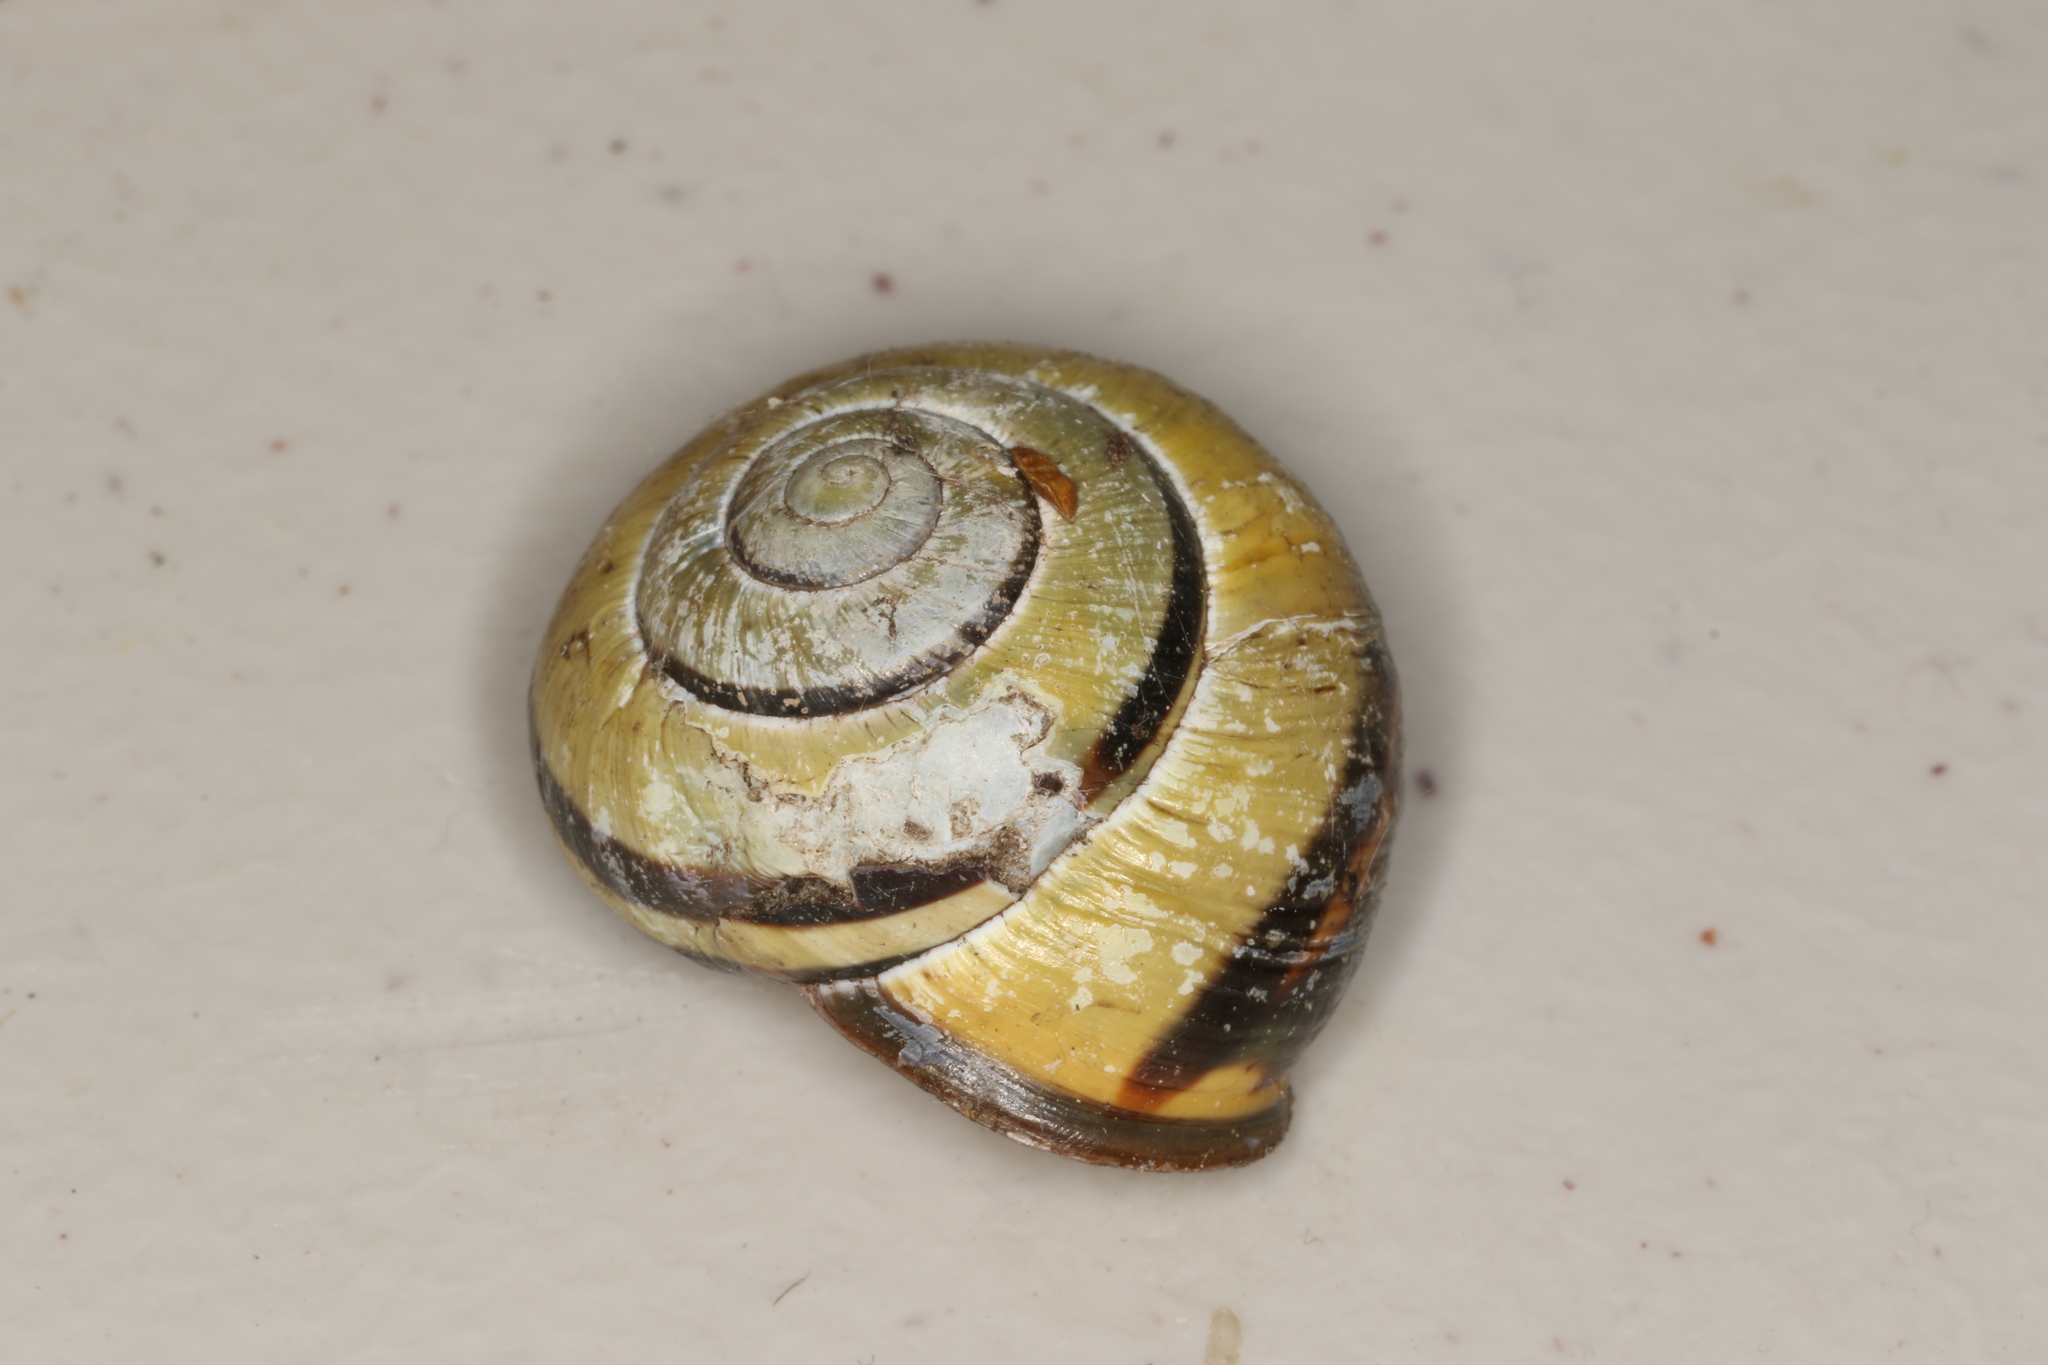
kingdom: Animalia
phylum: Mollusca
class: Gastropoda
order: Stylommatophora
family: Helicidae
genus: Cepaea
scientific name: Cepaea nemoralis
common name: Grovesnail
